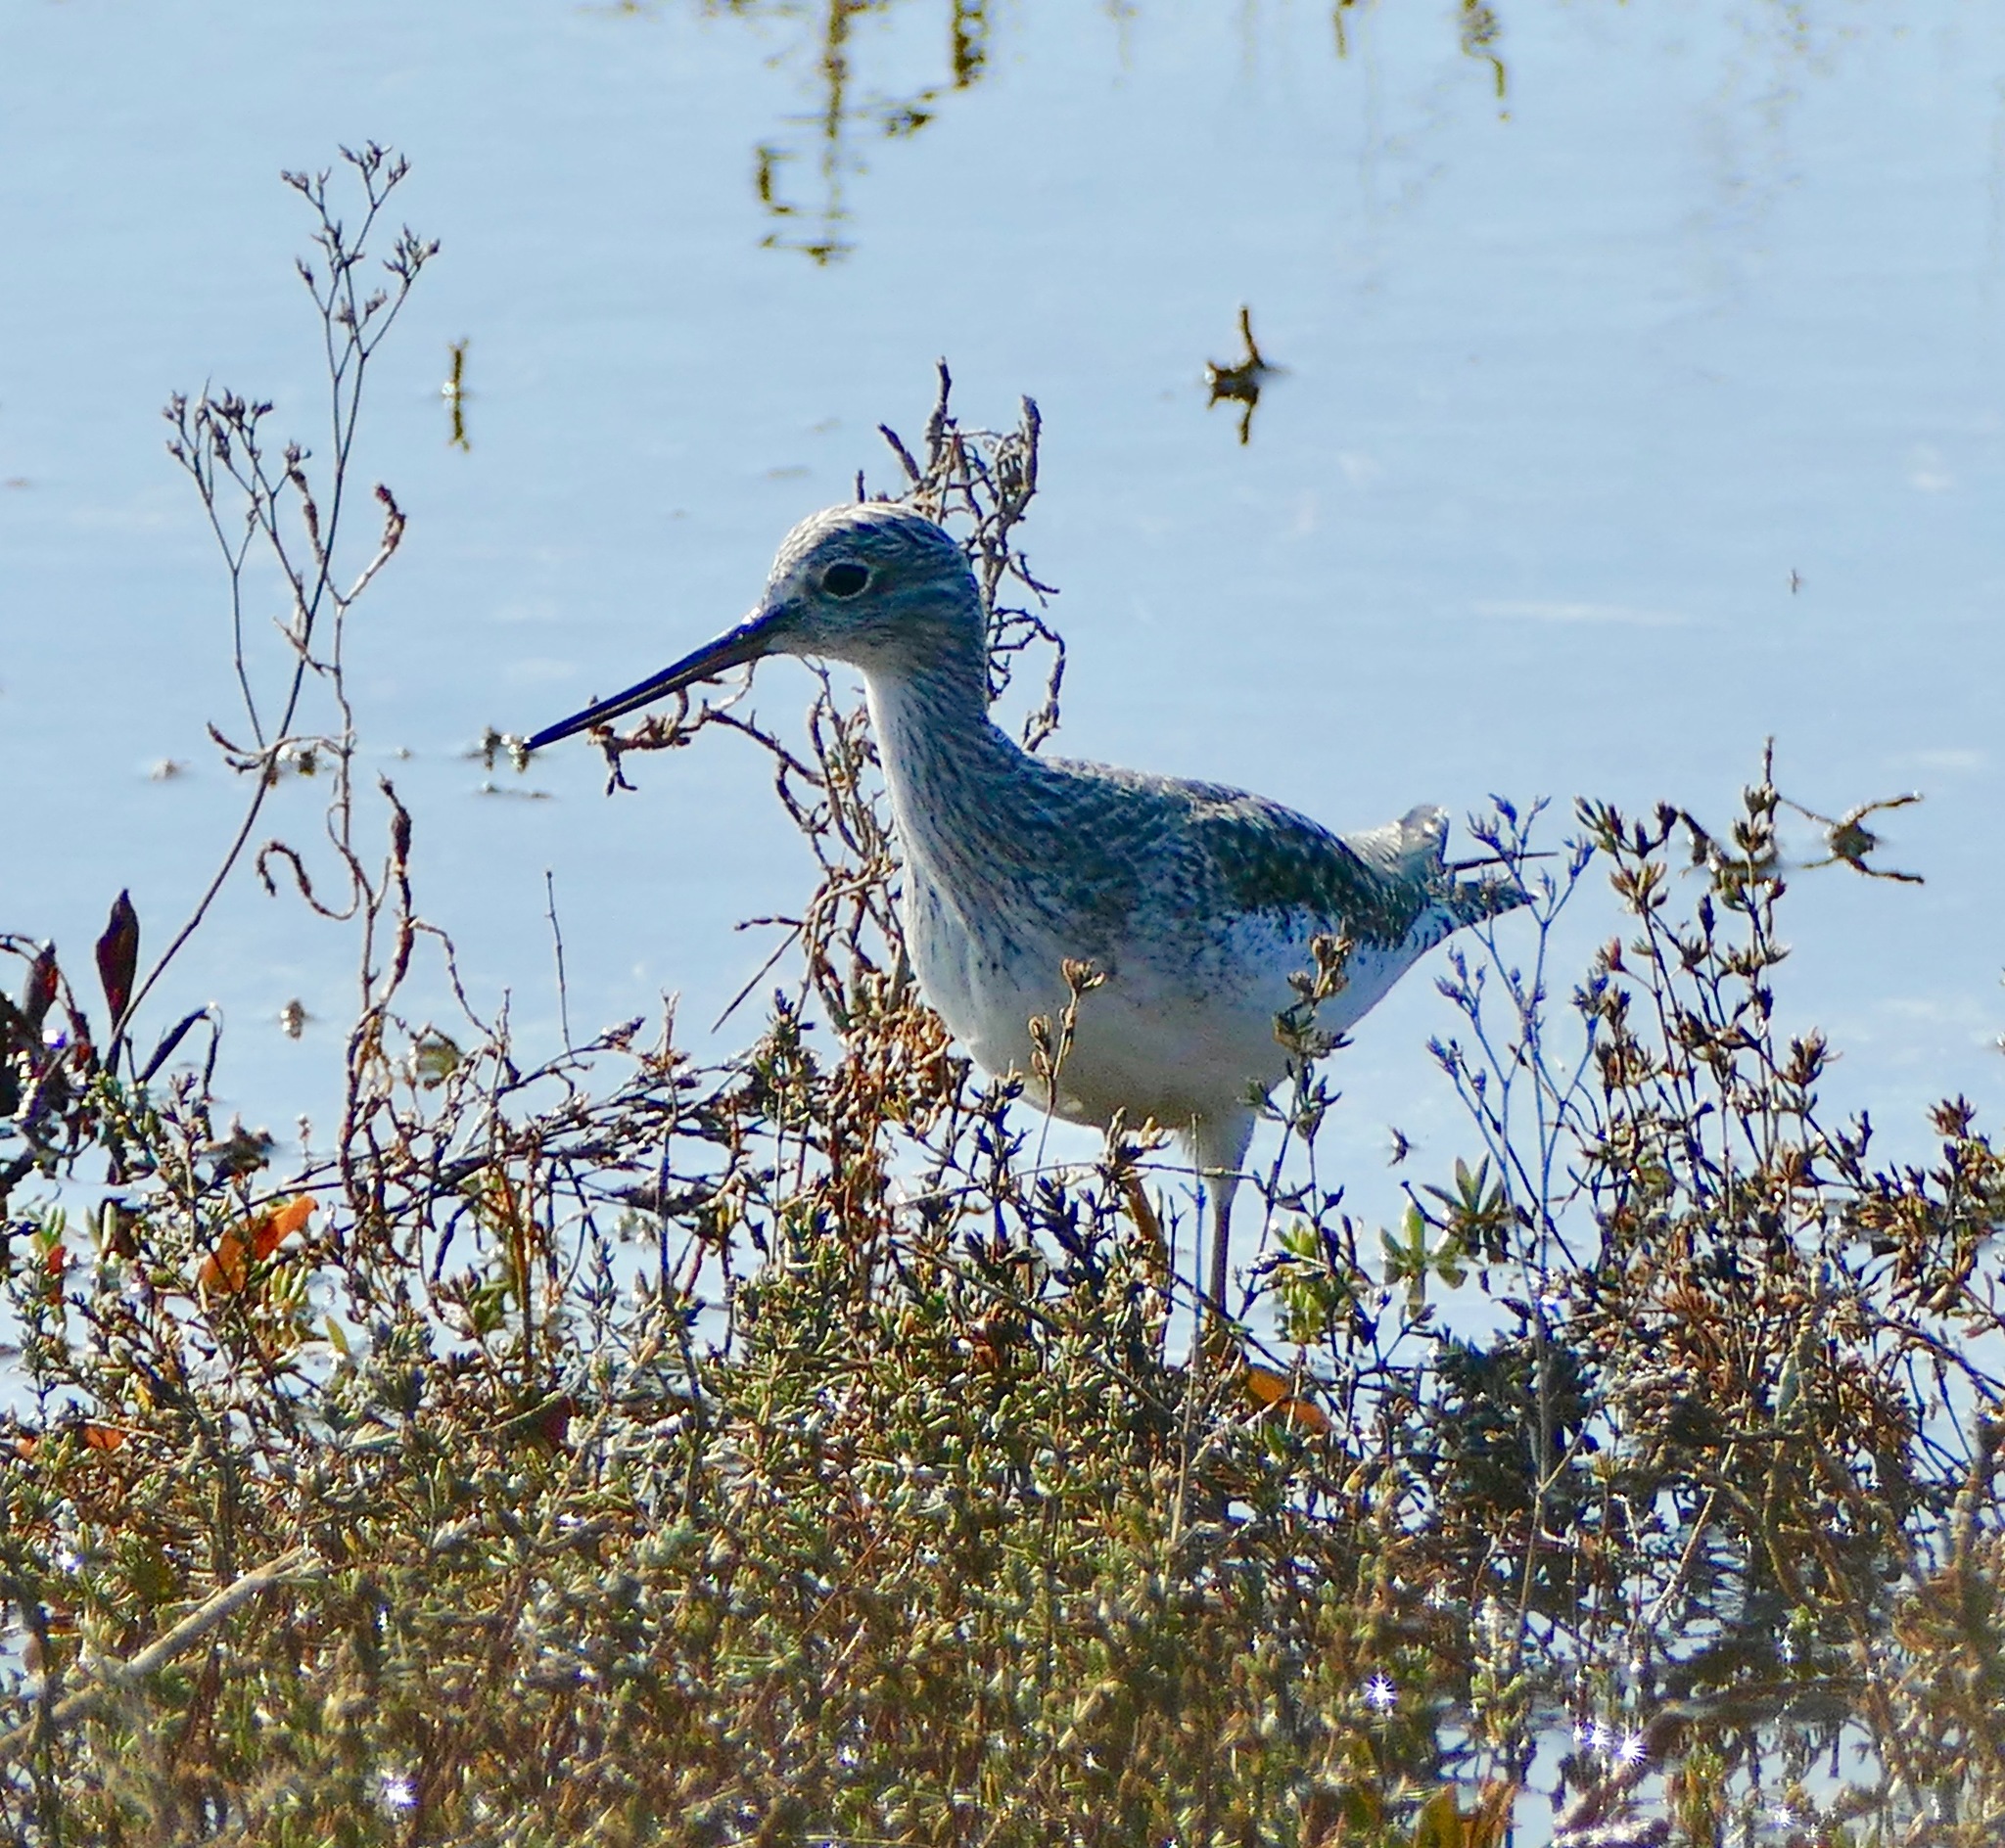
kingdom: Animalia
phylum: Chordata
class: Aves
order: Charadriiformes
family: Scolopacidae
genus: Tringa
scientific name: Tringa melanoleuca
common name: Greater yellowlegs
